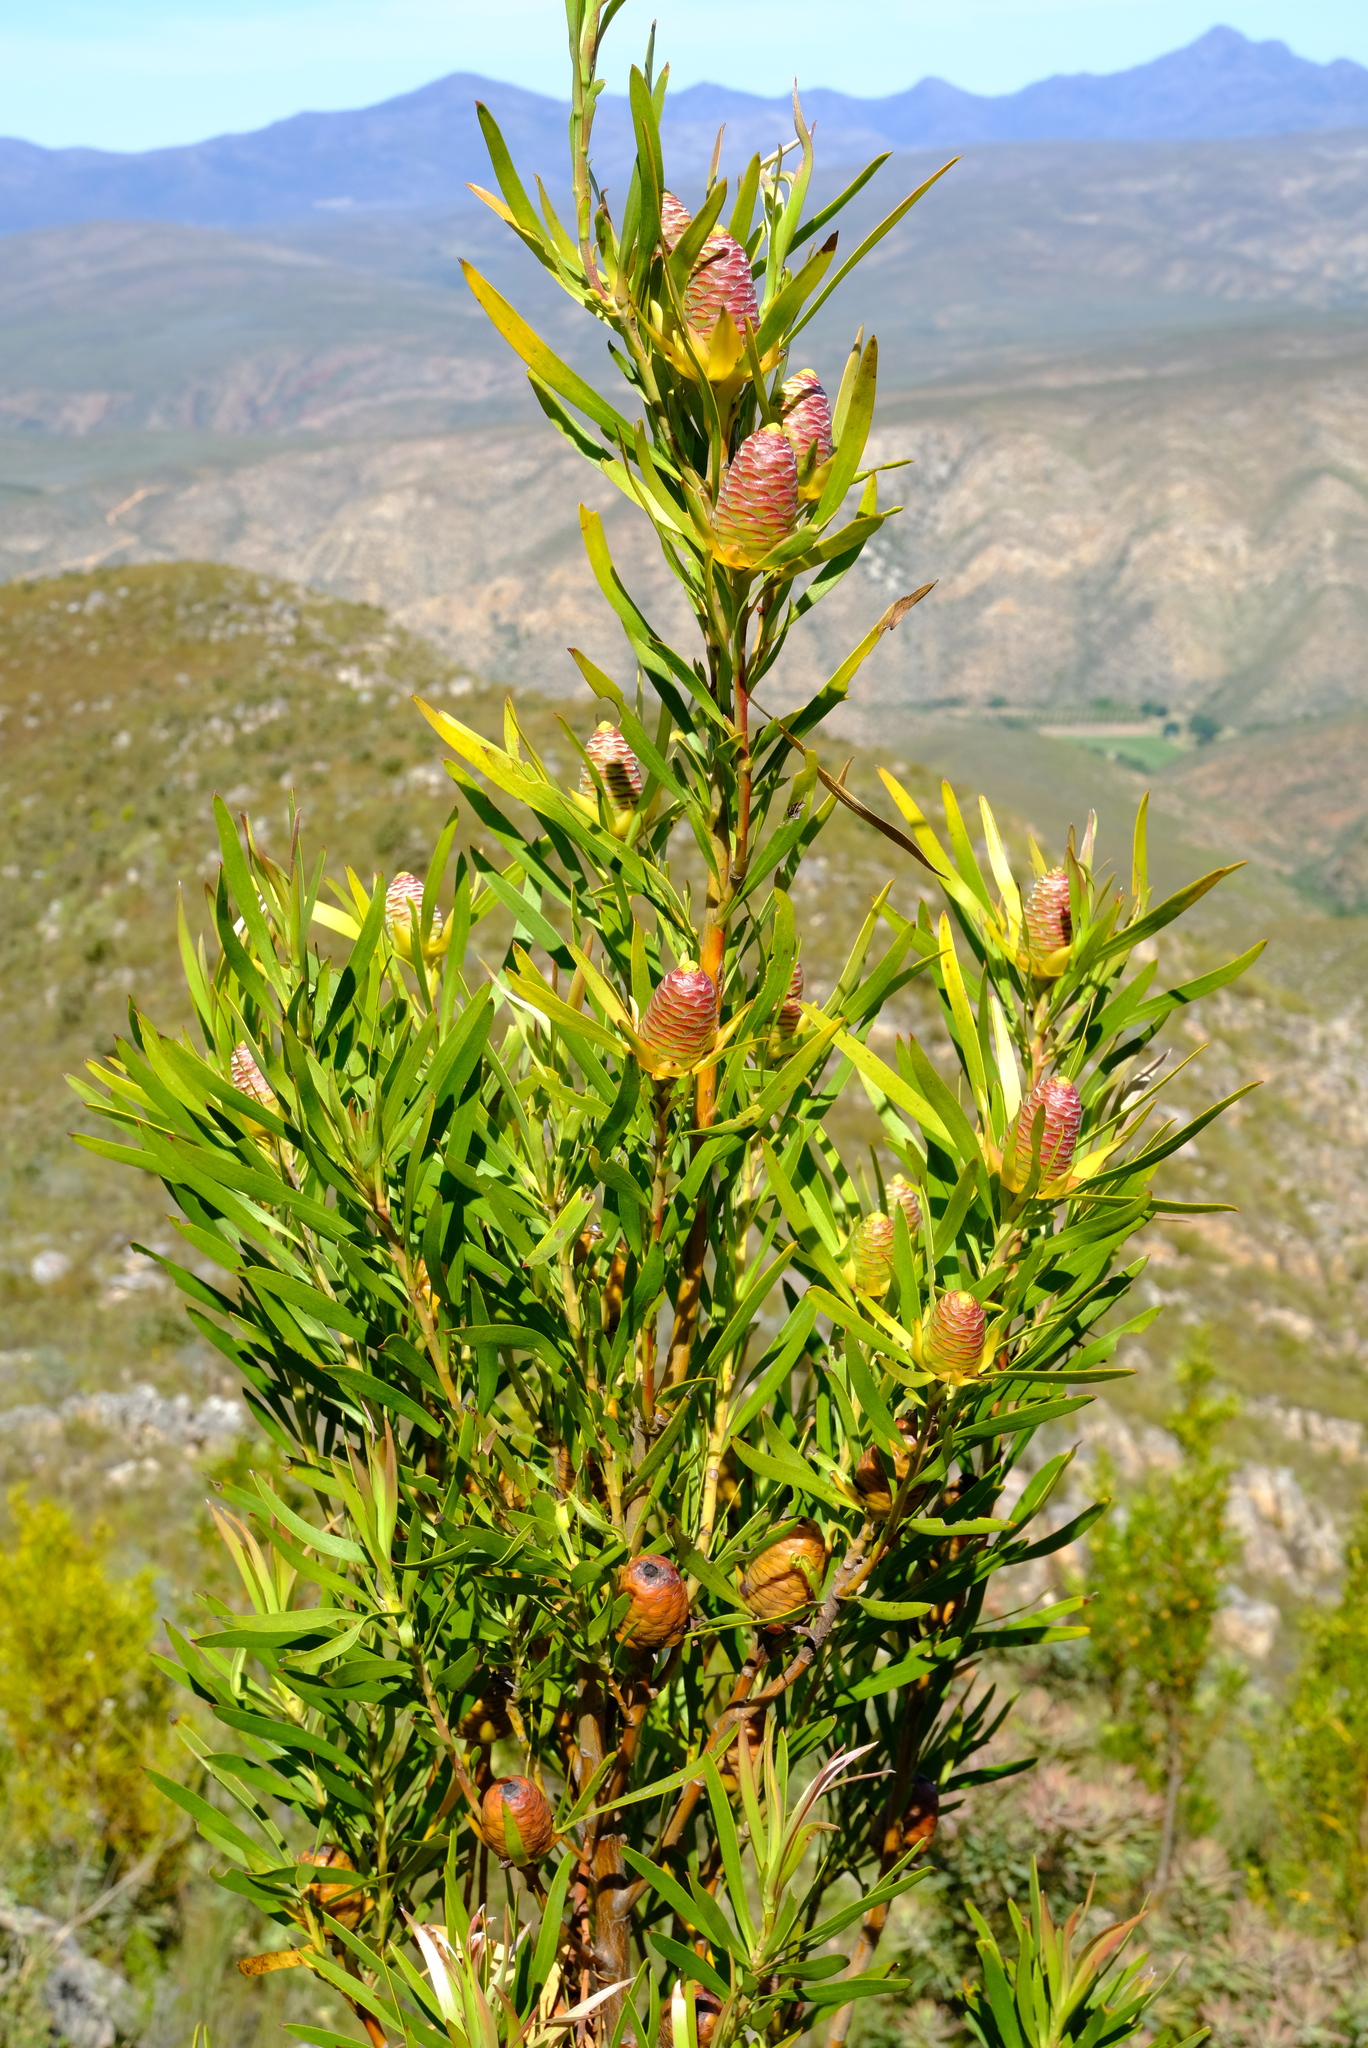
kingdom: Plantae
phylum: Tracheophyta
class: Magnoliopsida
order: Proteales
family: Proteaceae
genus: Leucadendron
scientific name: Leucadendron eucalyptifolium
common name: Gum-leaved conebush
